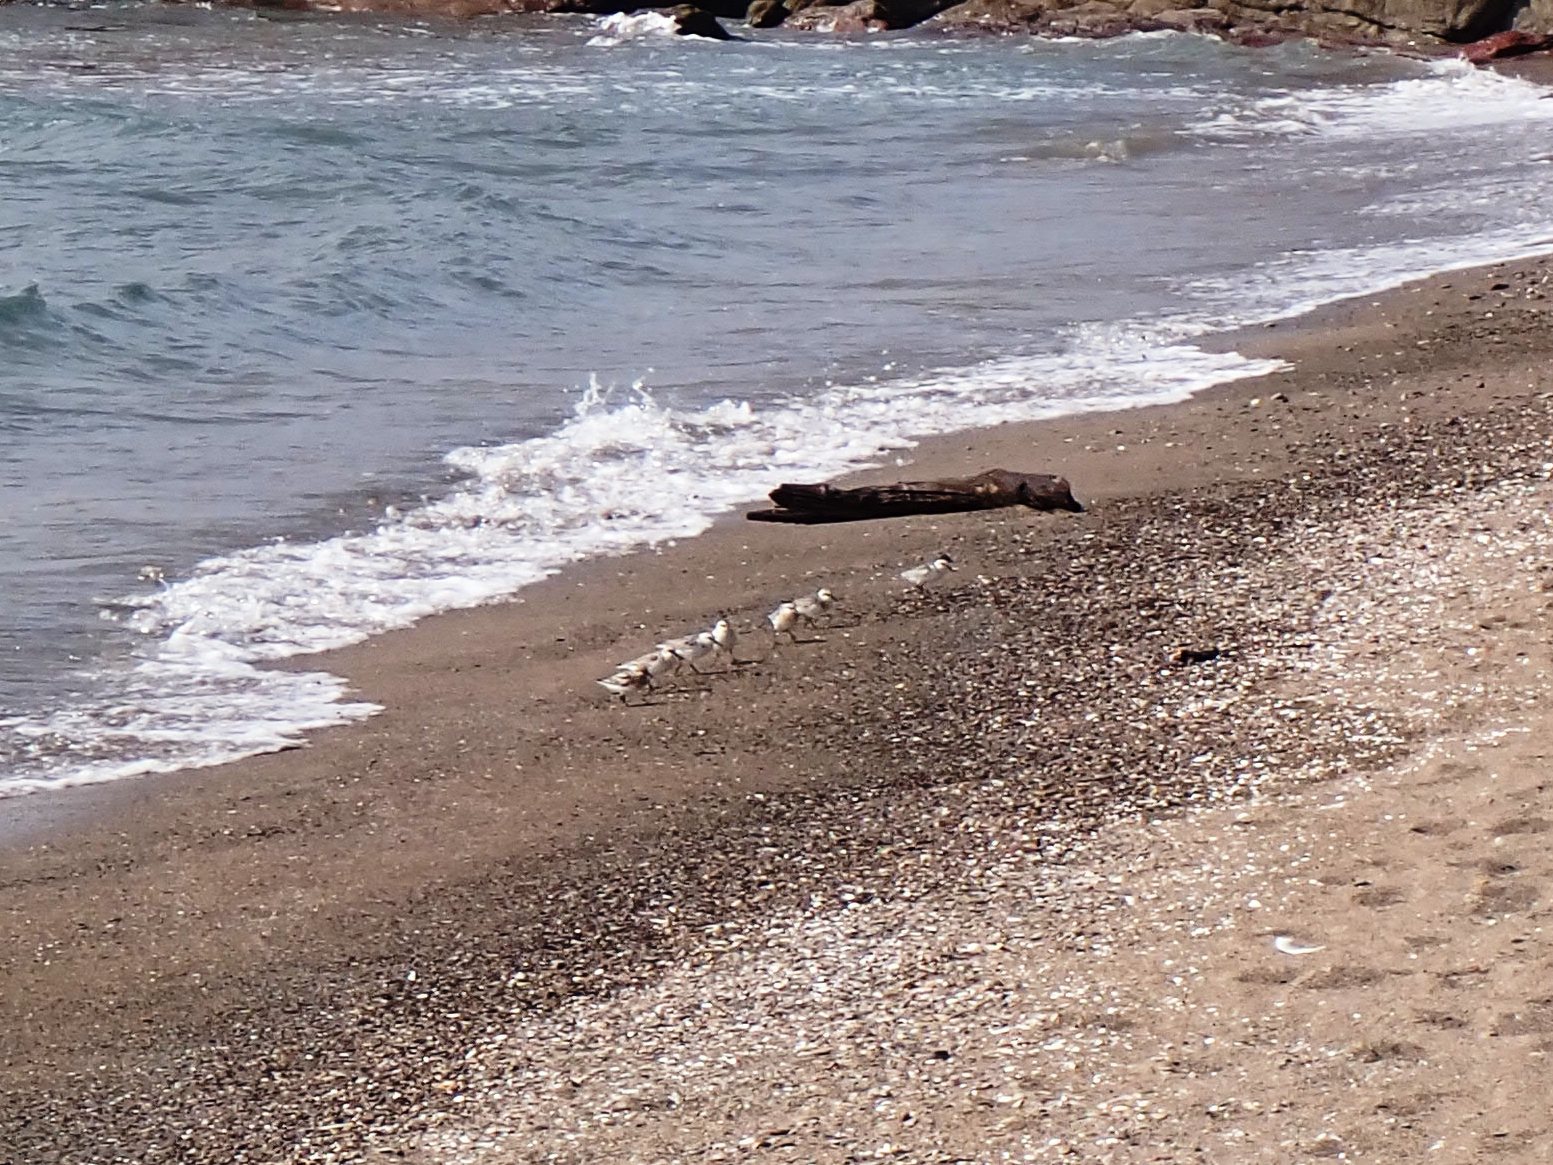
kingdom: Animalia
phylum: Chordata
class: Aves
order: Charadriiformes
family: Scolopacidae
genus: Calidris
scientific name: Calidris alba
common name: Sanderling
